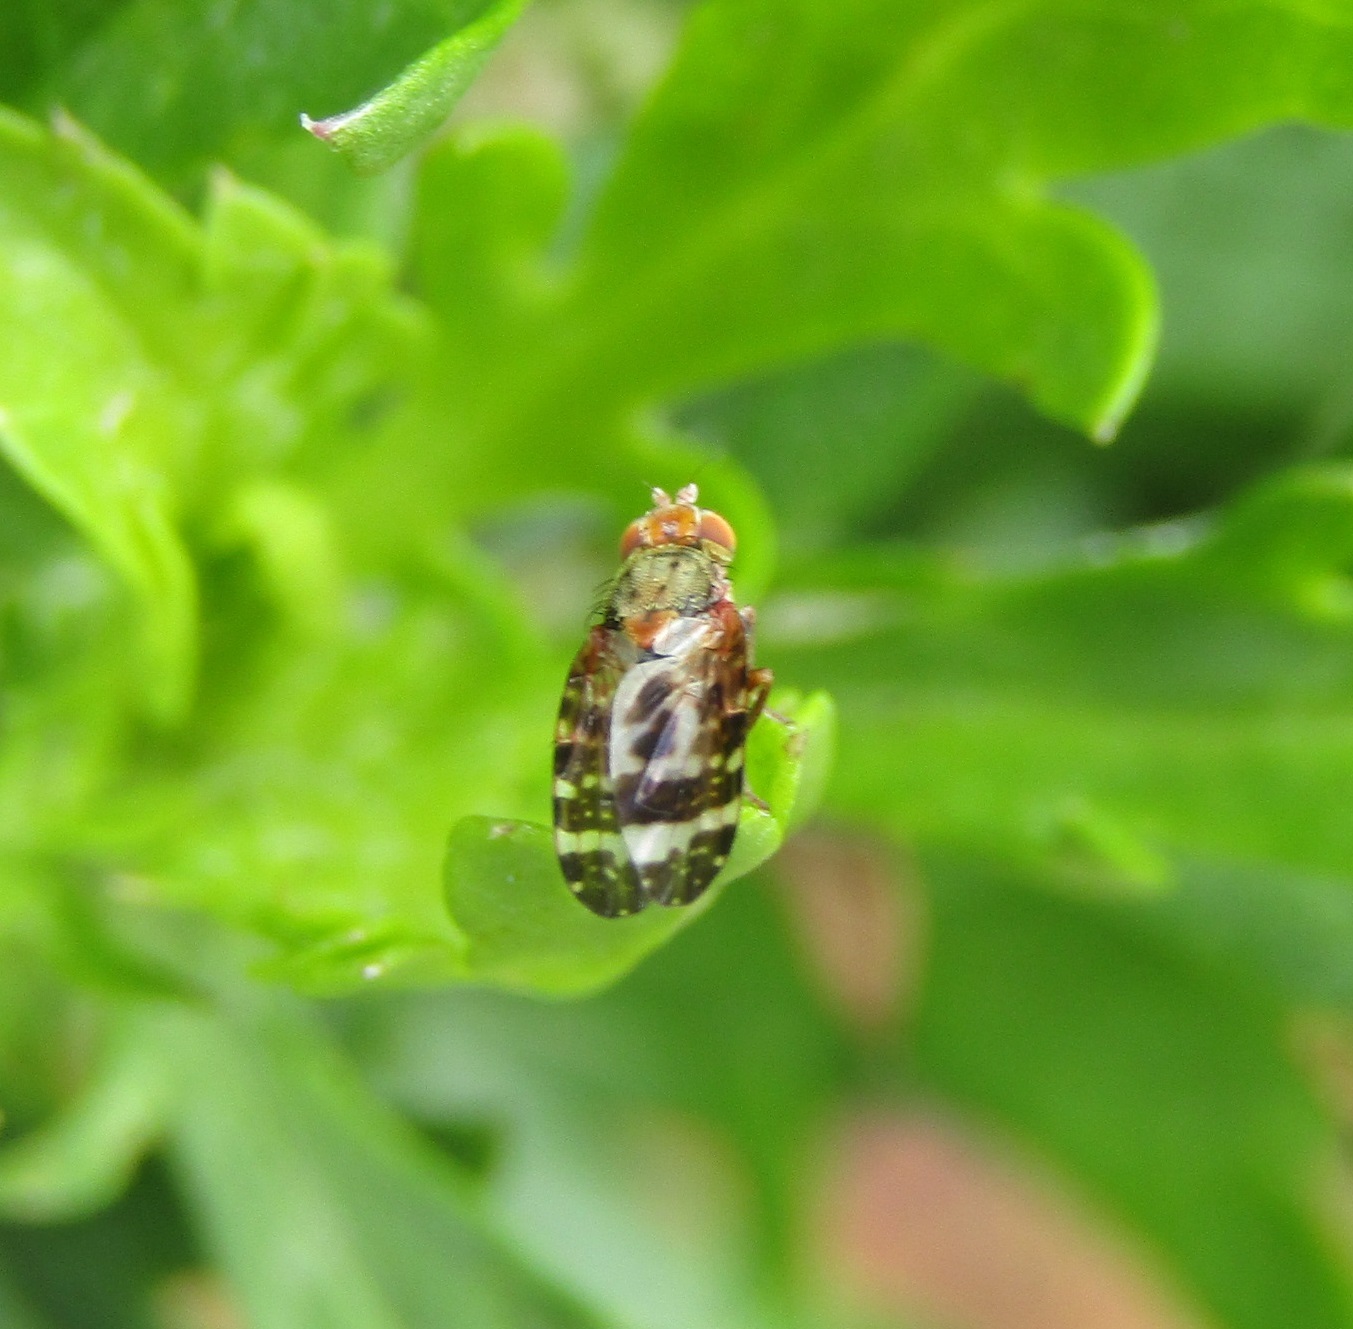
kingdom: Animalia
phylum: Arthropoda
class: Insecta
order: Diptera
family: Tephritidae
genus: Sphenella
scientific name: Sphenella
